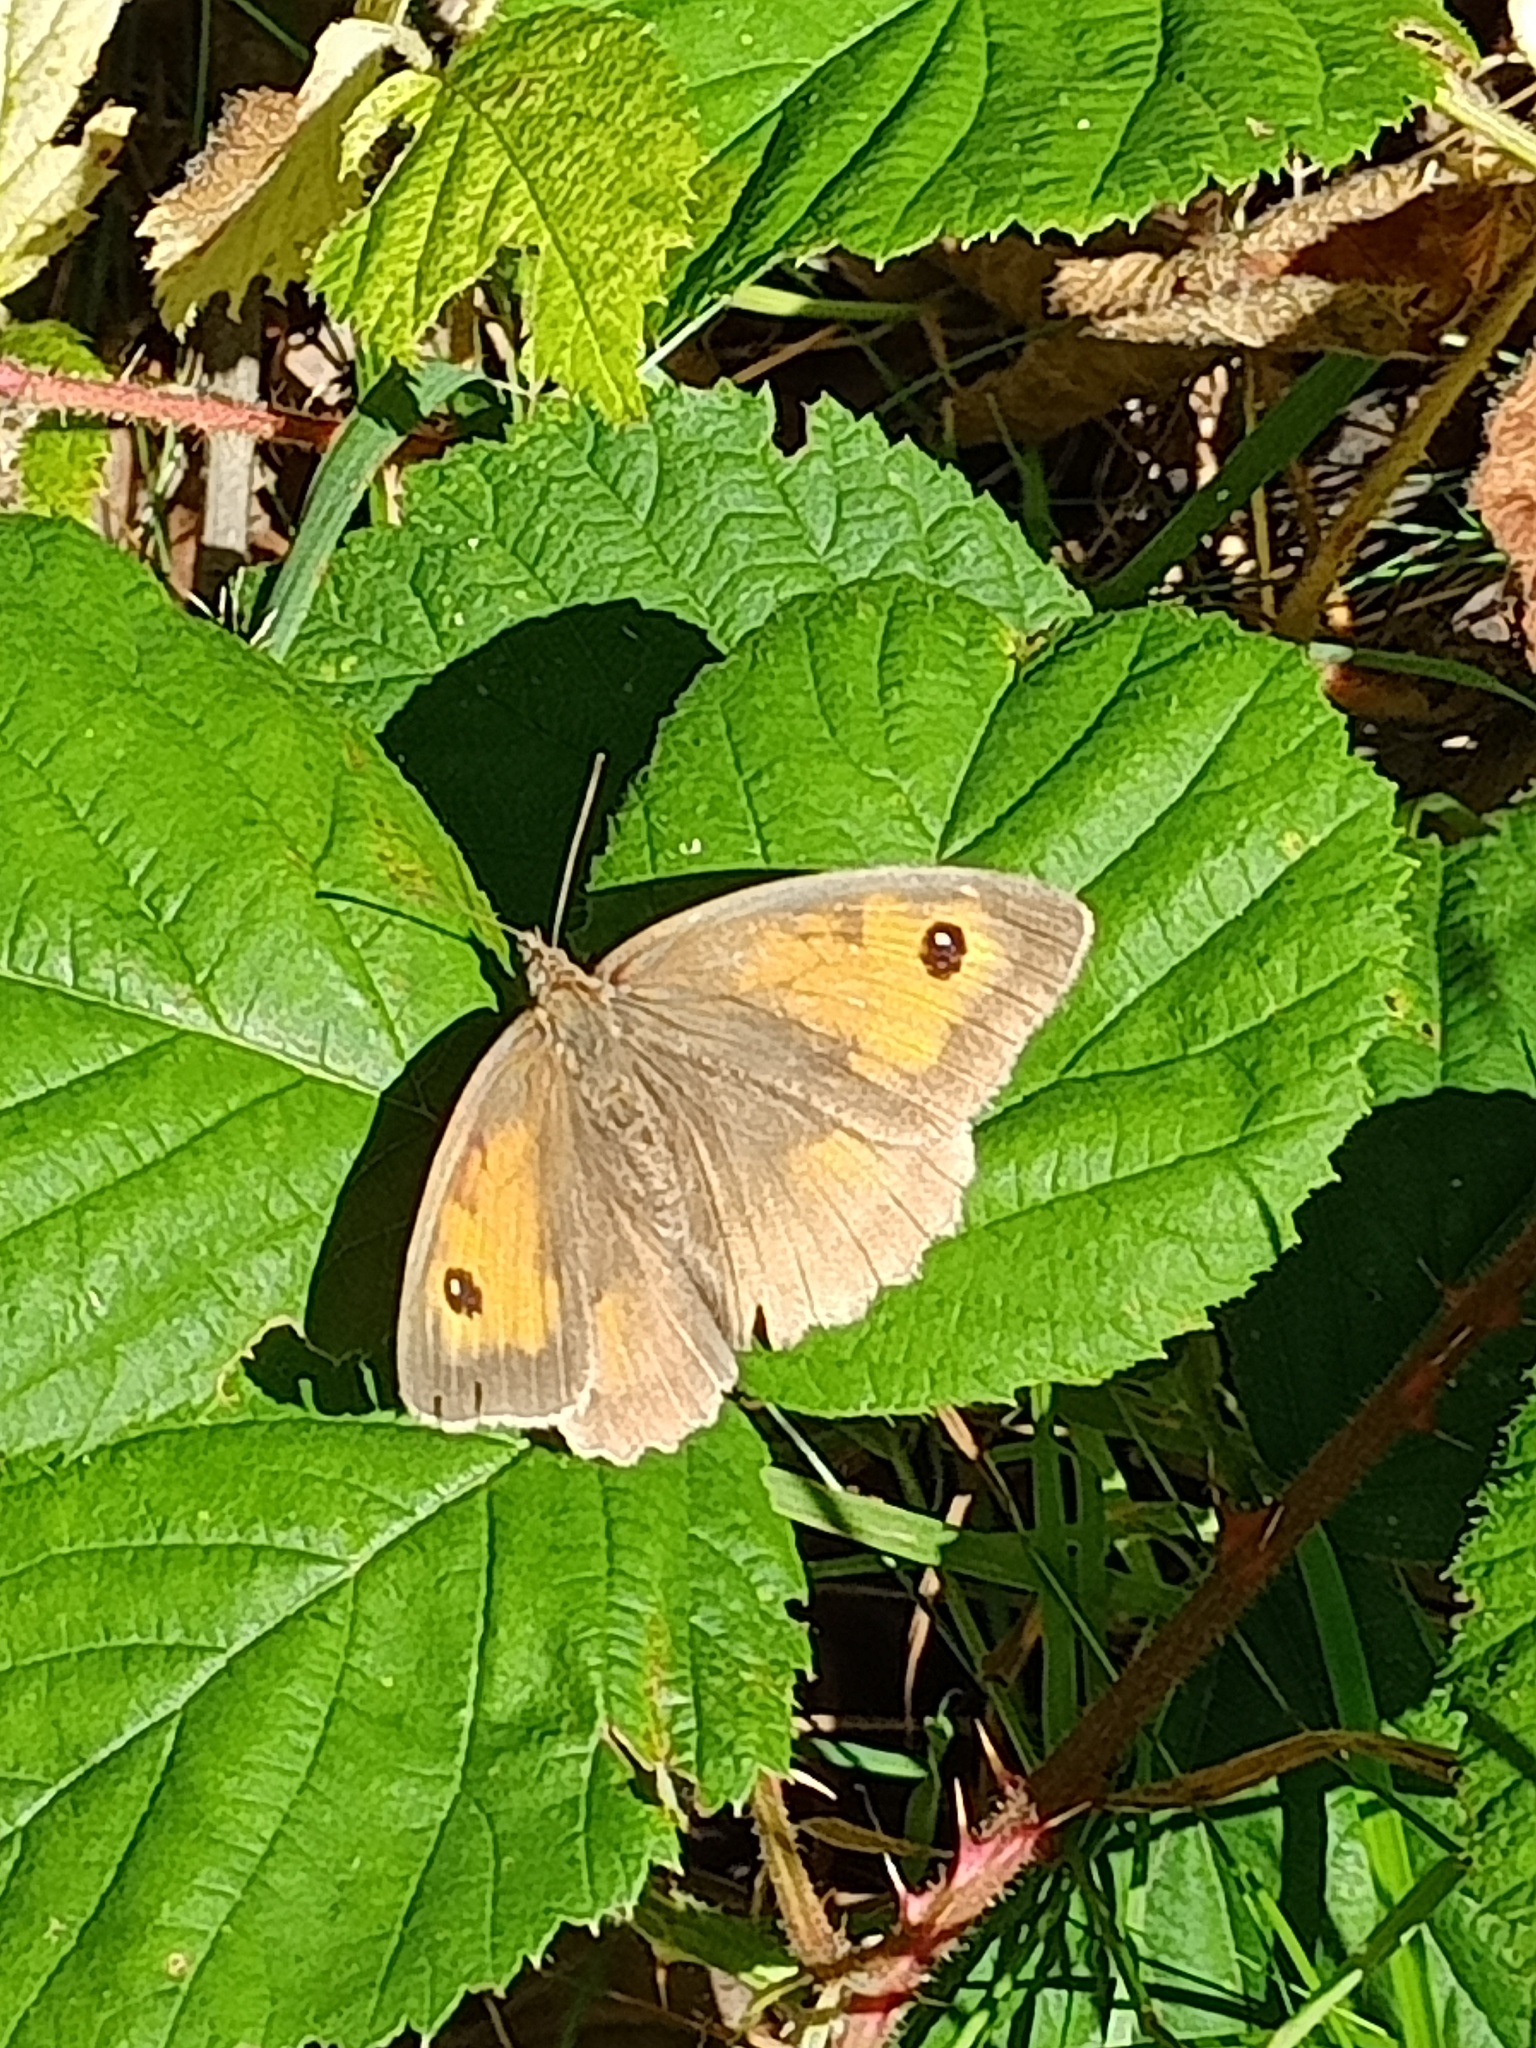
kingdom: Animalia
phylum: Arthropoda
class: Insecta
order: Lepidoptera
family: Nymphalidae
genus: Maniola
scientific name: Maniola jurtina
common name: Meadow brown
